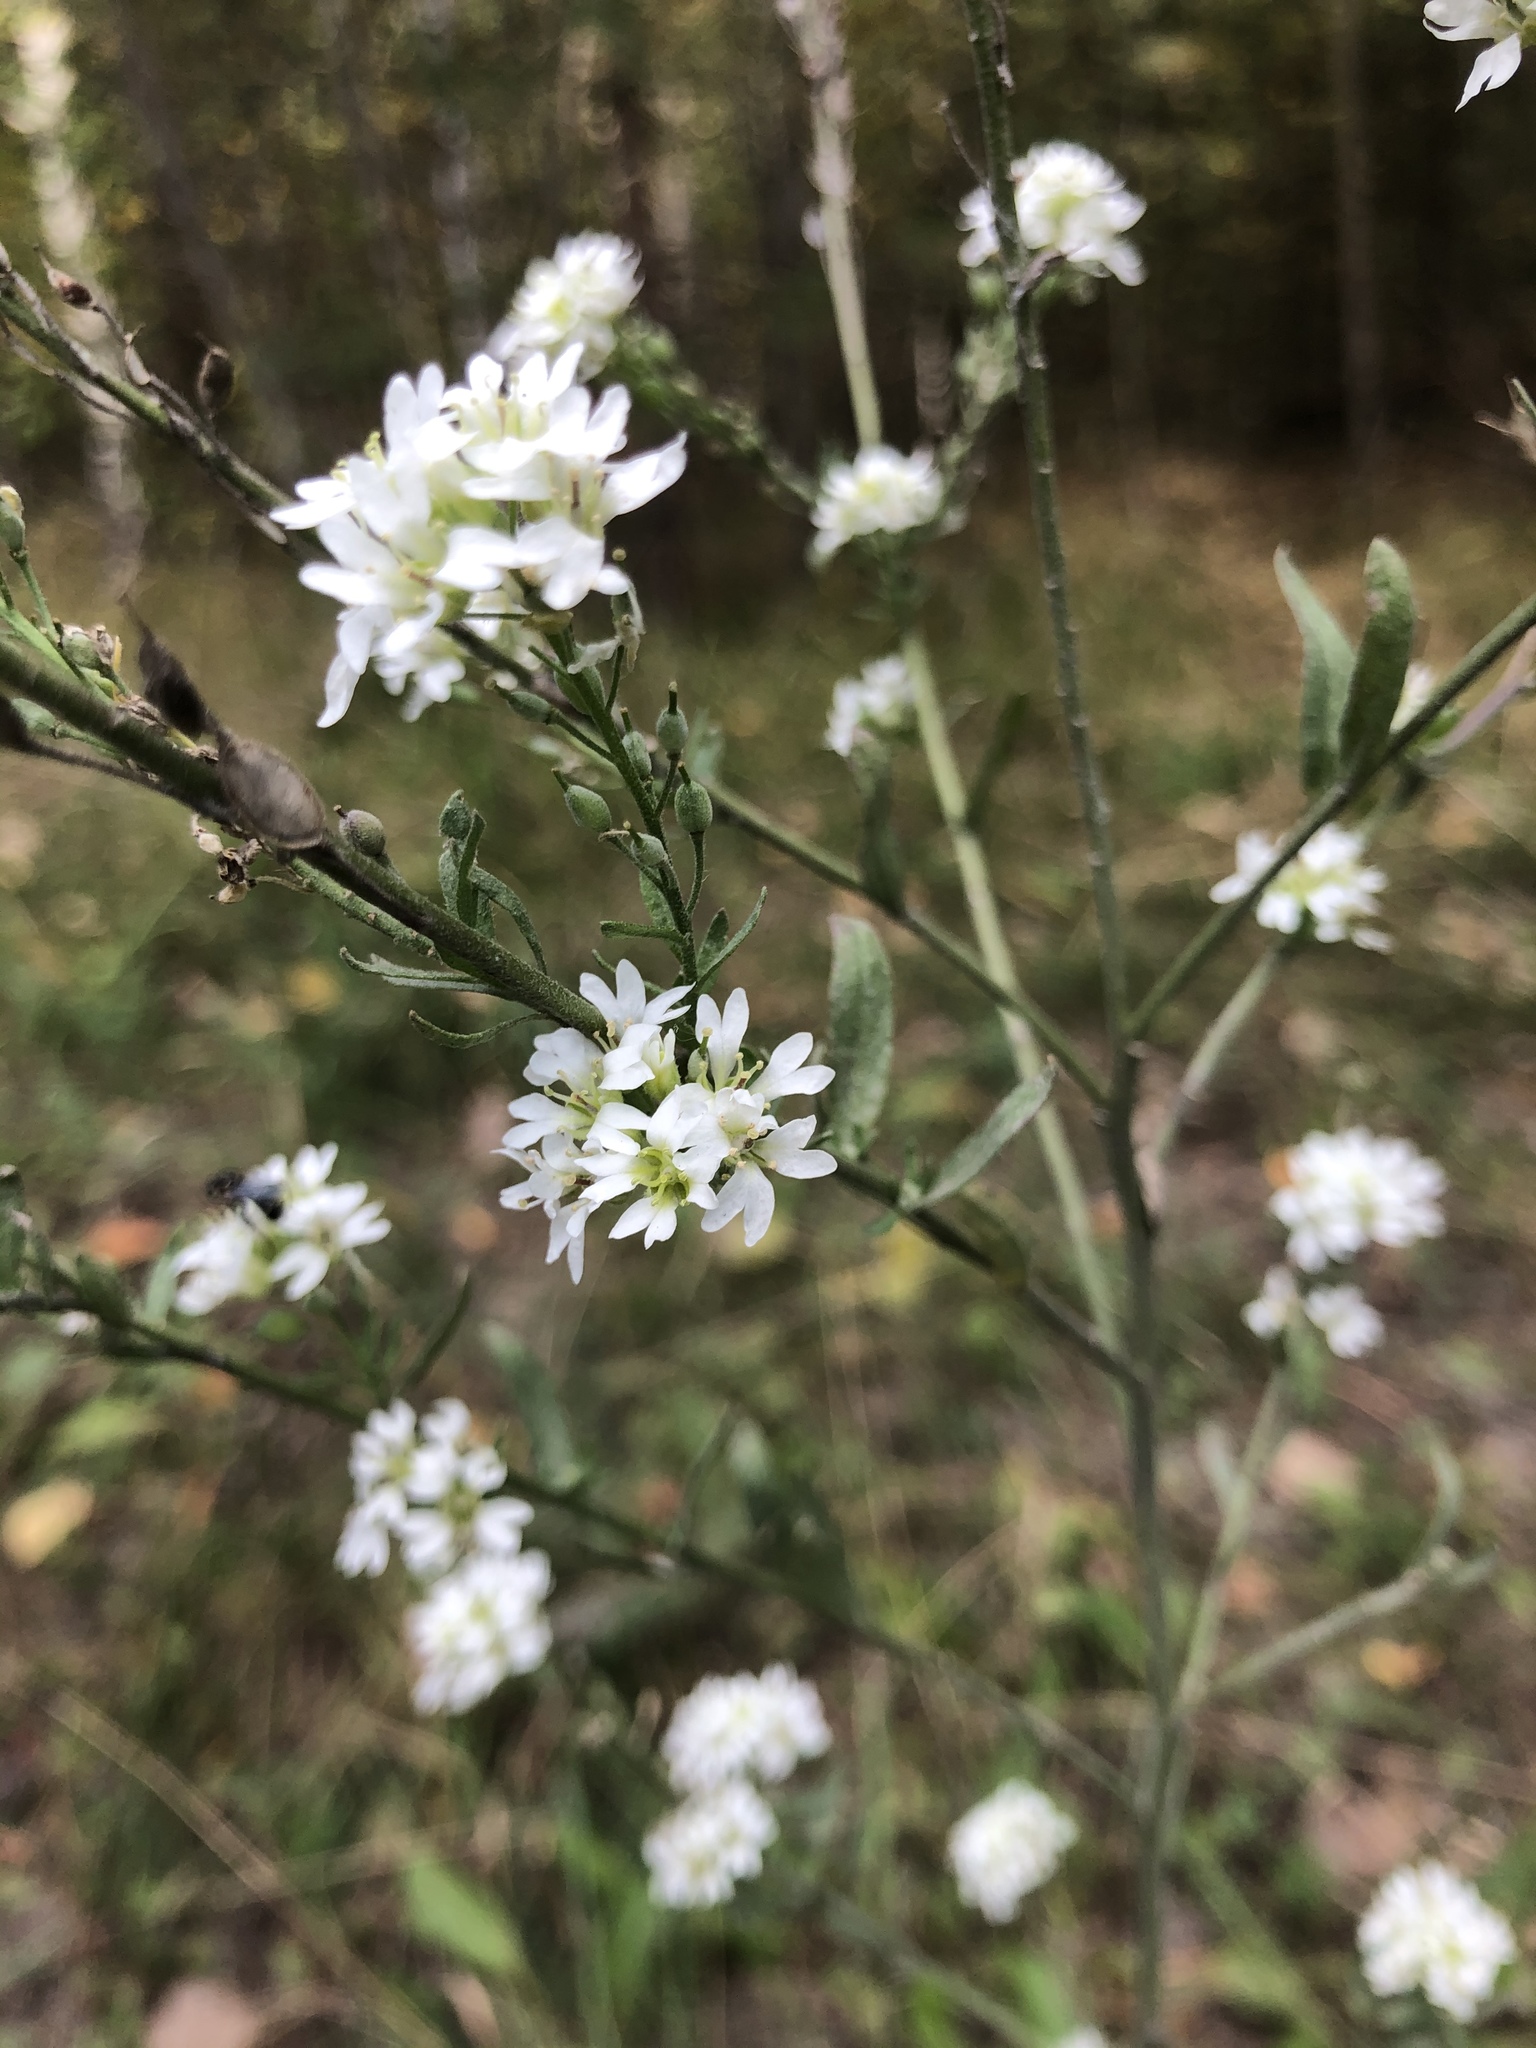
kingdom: Plantae
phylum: Tracheophyta
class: Magnoliopsida
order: Brassicales
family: Brassicaceae
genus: Berteroa
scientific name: Berteroa incana
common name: Hoary alison
